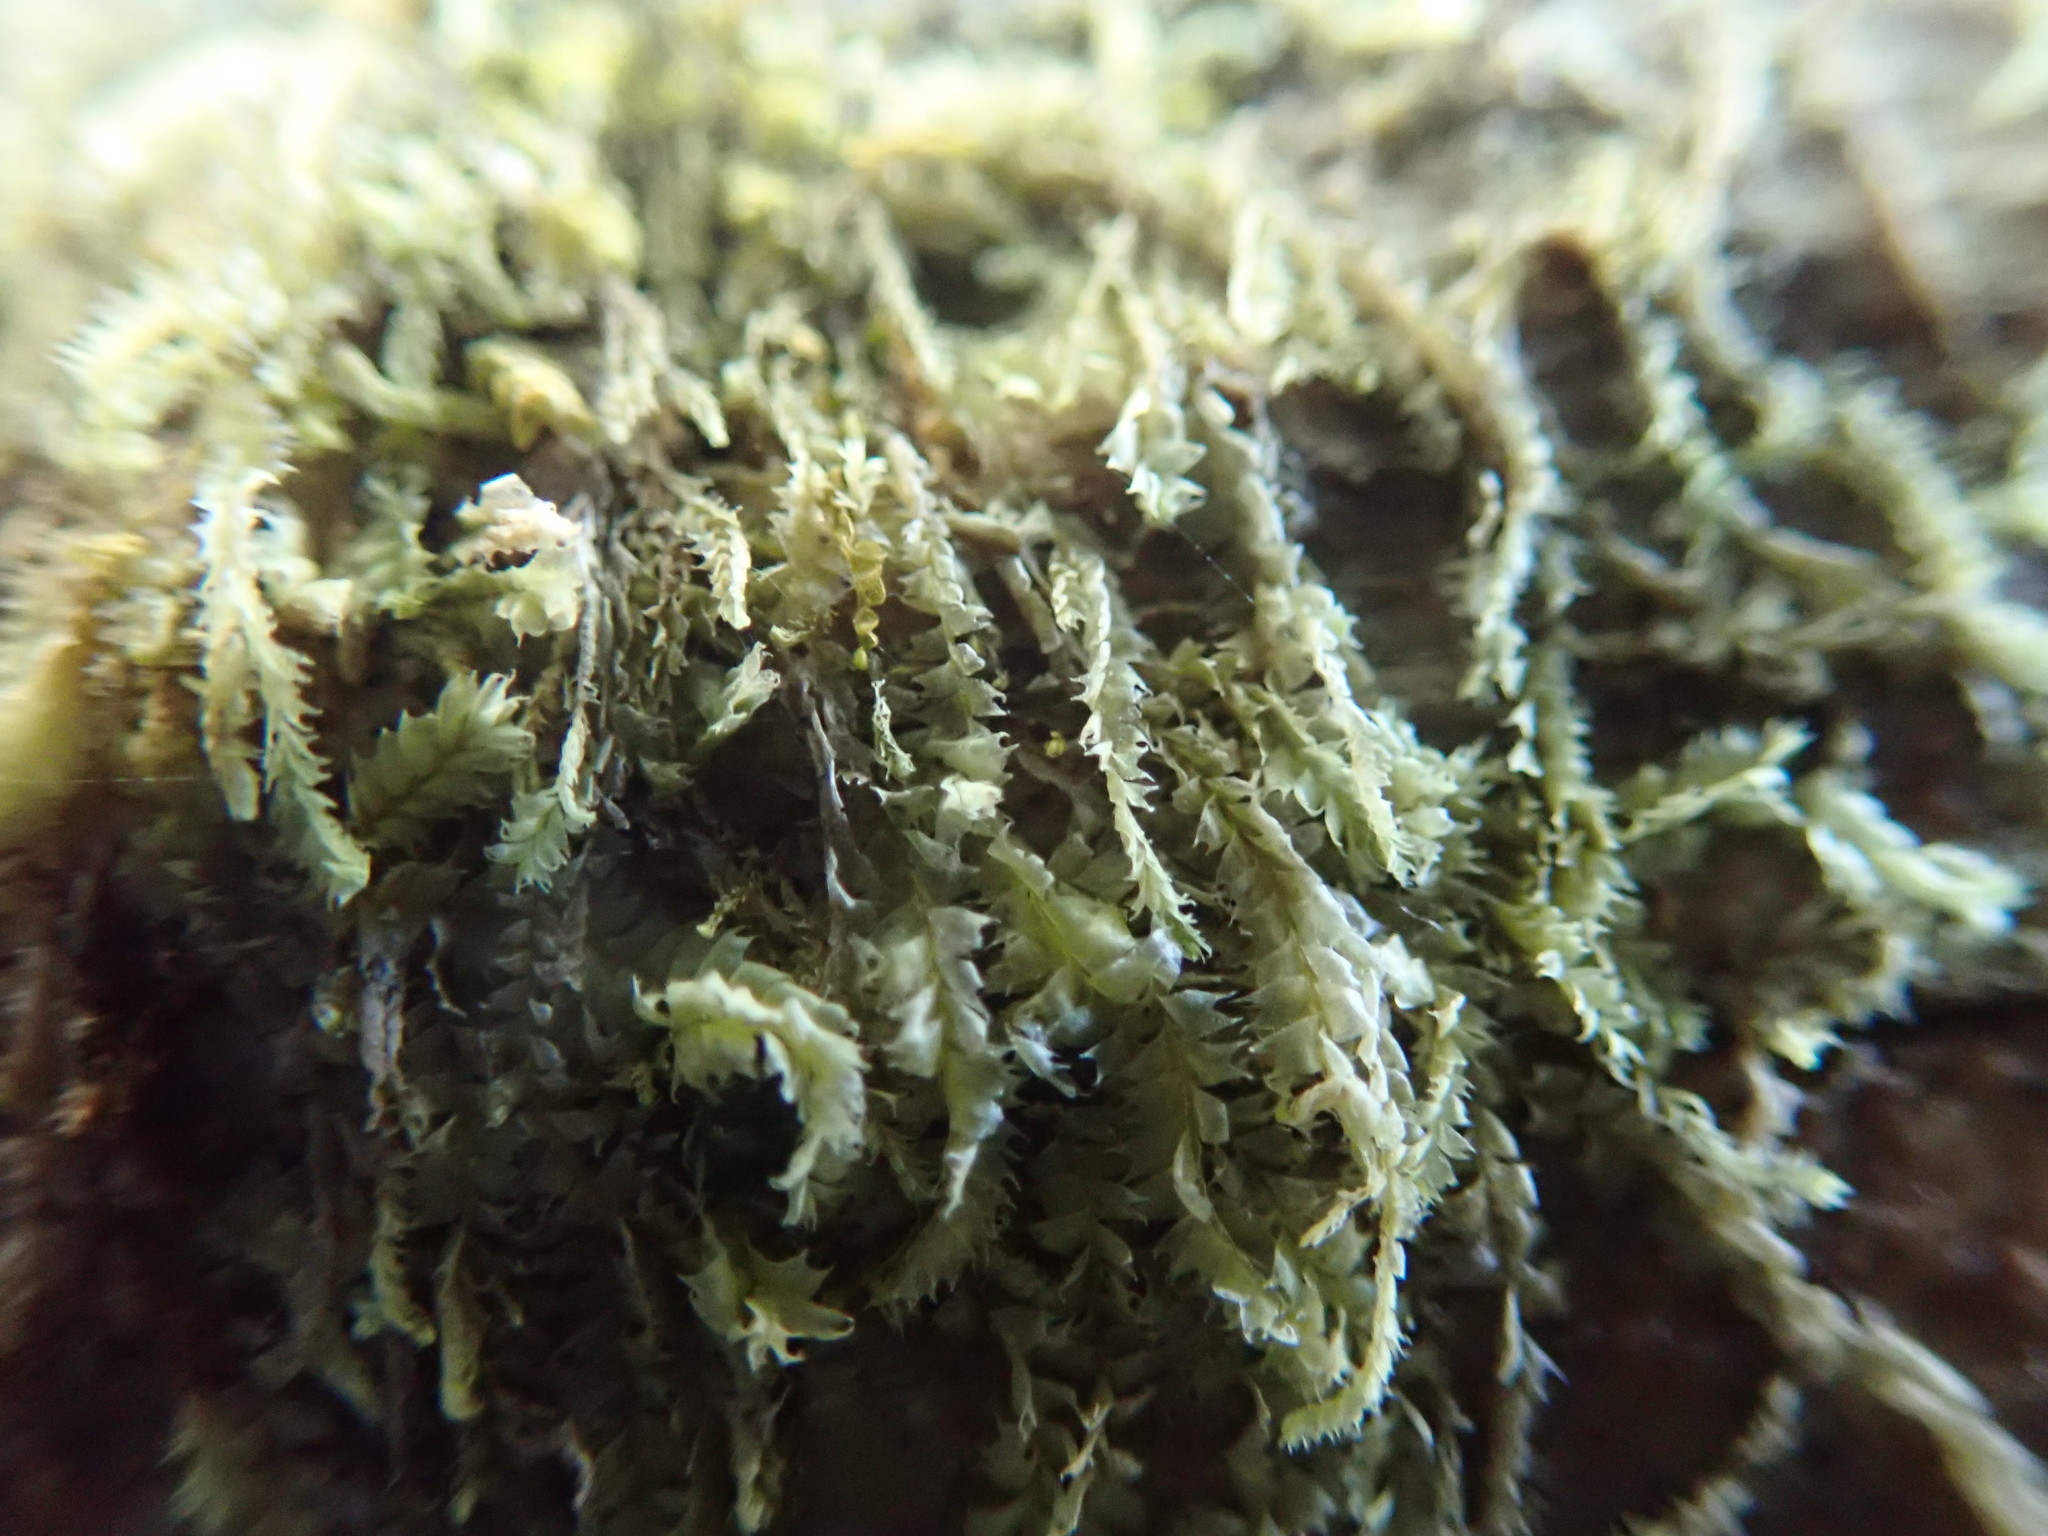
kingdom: Plantae
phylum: Marchantiophyta
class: Jungermanniopsida
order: Jungermanniales
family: Lophocoleaceae
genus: Lophocolea
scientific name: Lophocolea bidentata
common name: Bifid crestwort
